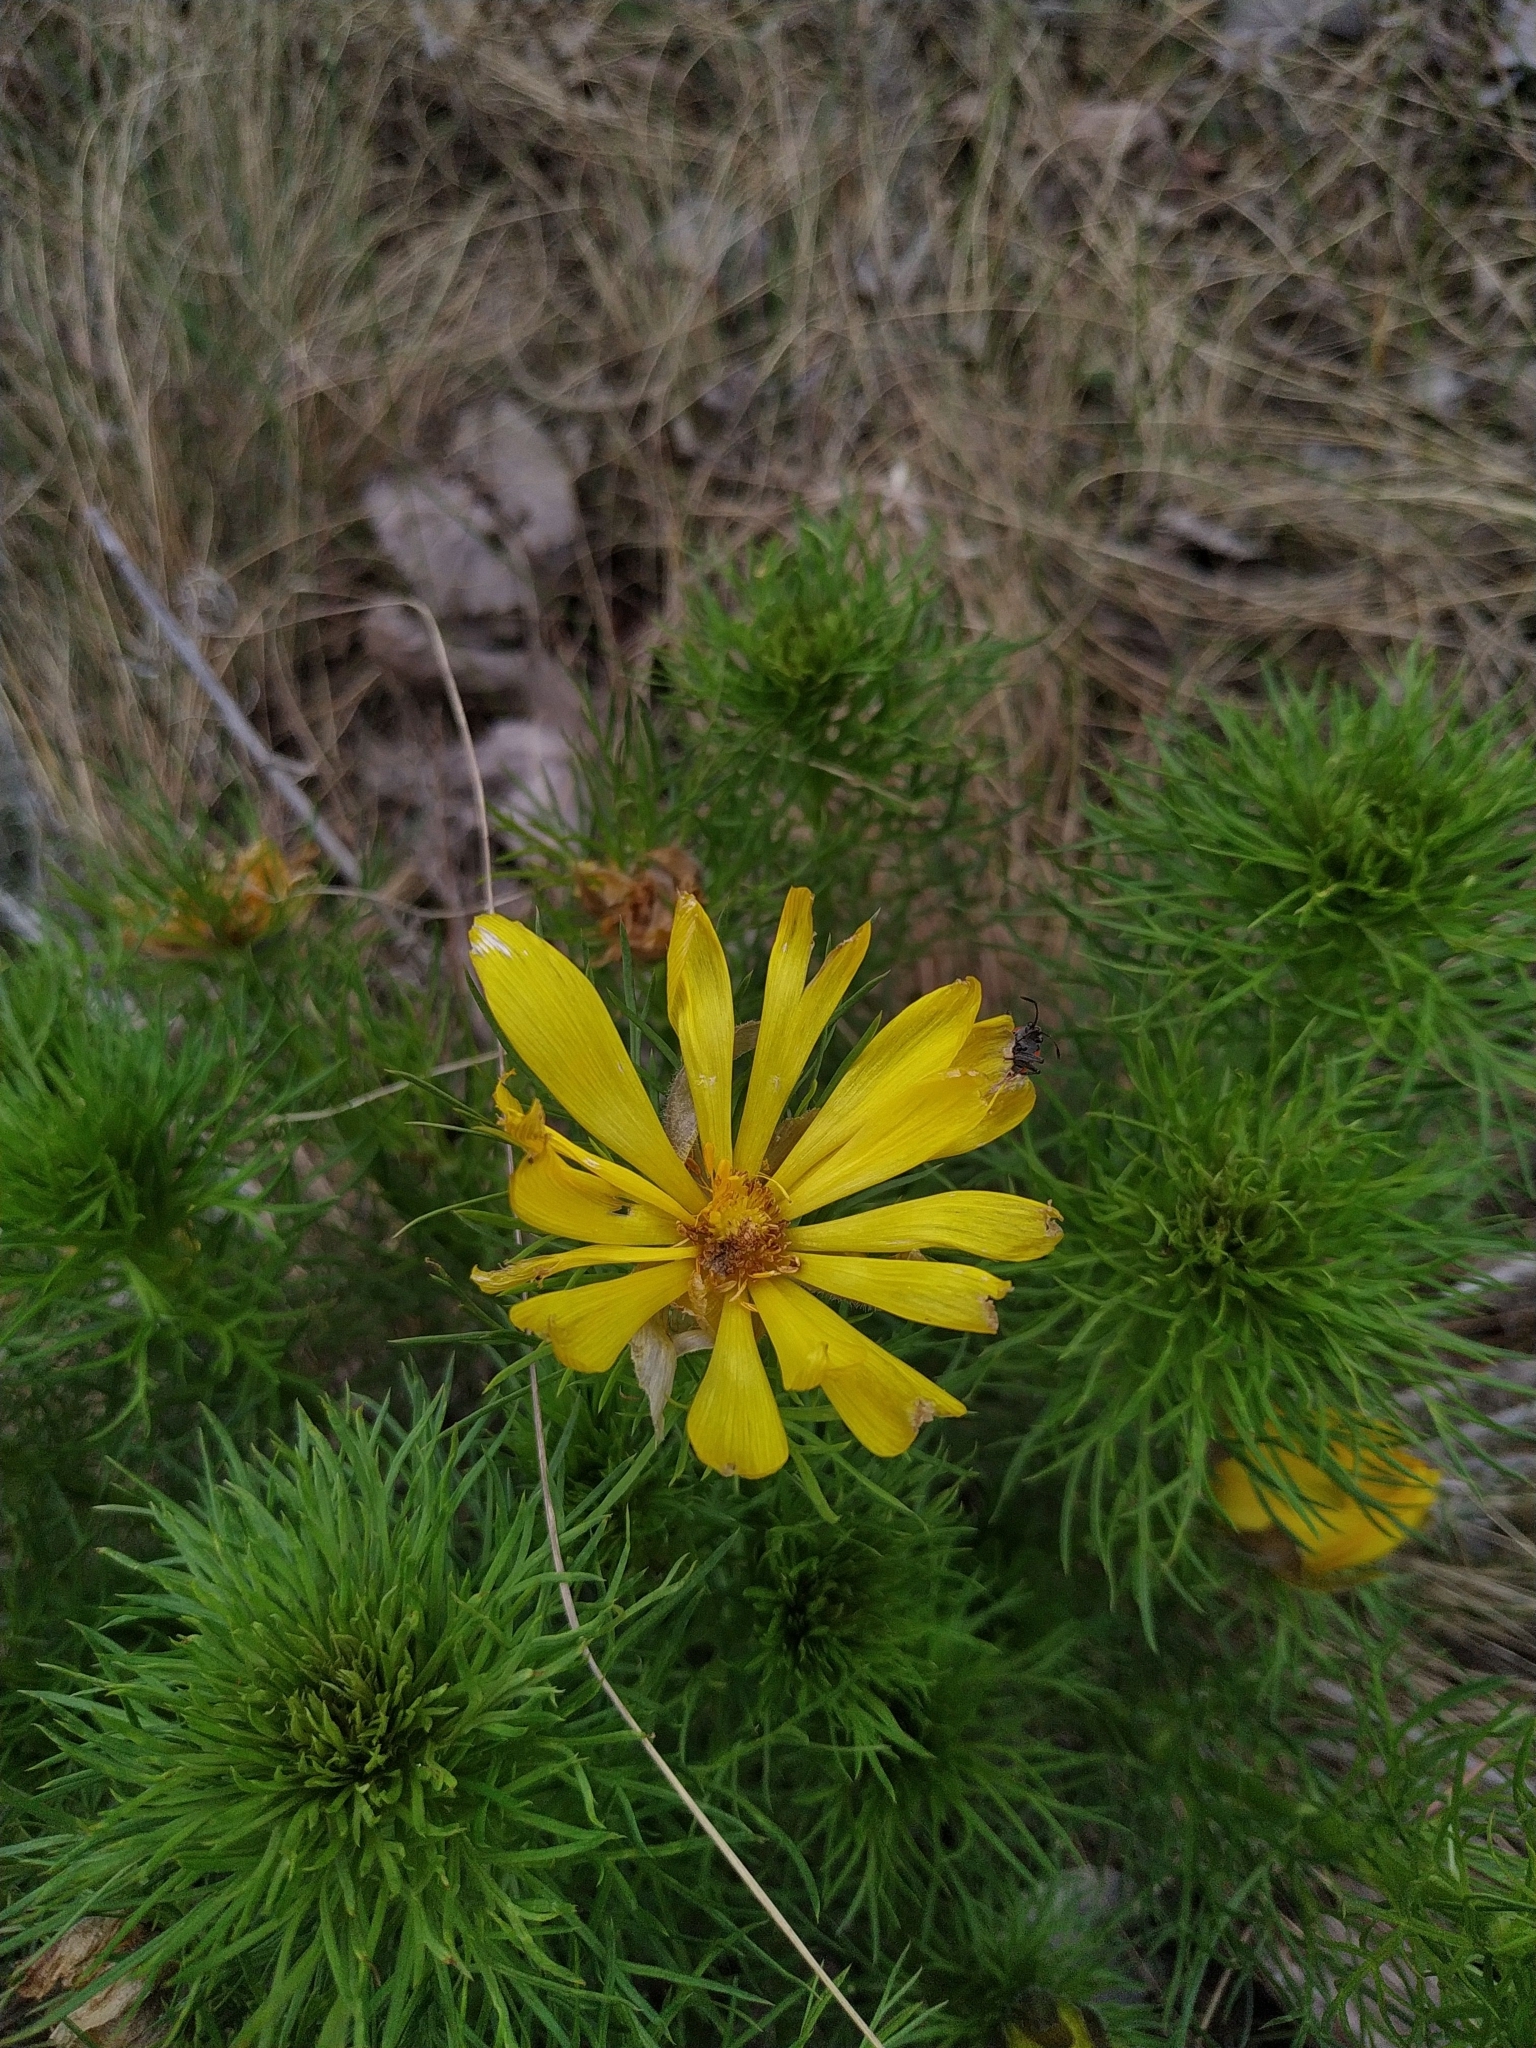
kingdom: Plantae
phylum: Tracheophyta
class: Magnoliopsida
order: Ranunculales
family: Ranunculaceae
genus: Adonis
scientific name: Adonis vernalis
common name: Yellow pheasants-eye
